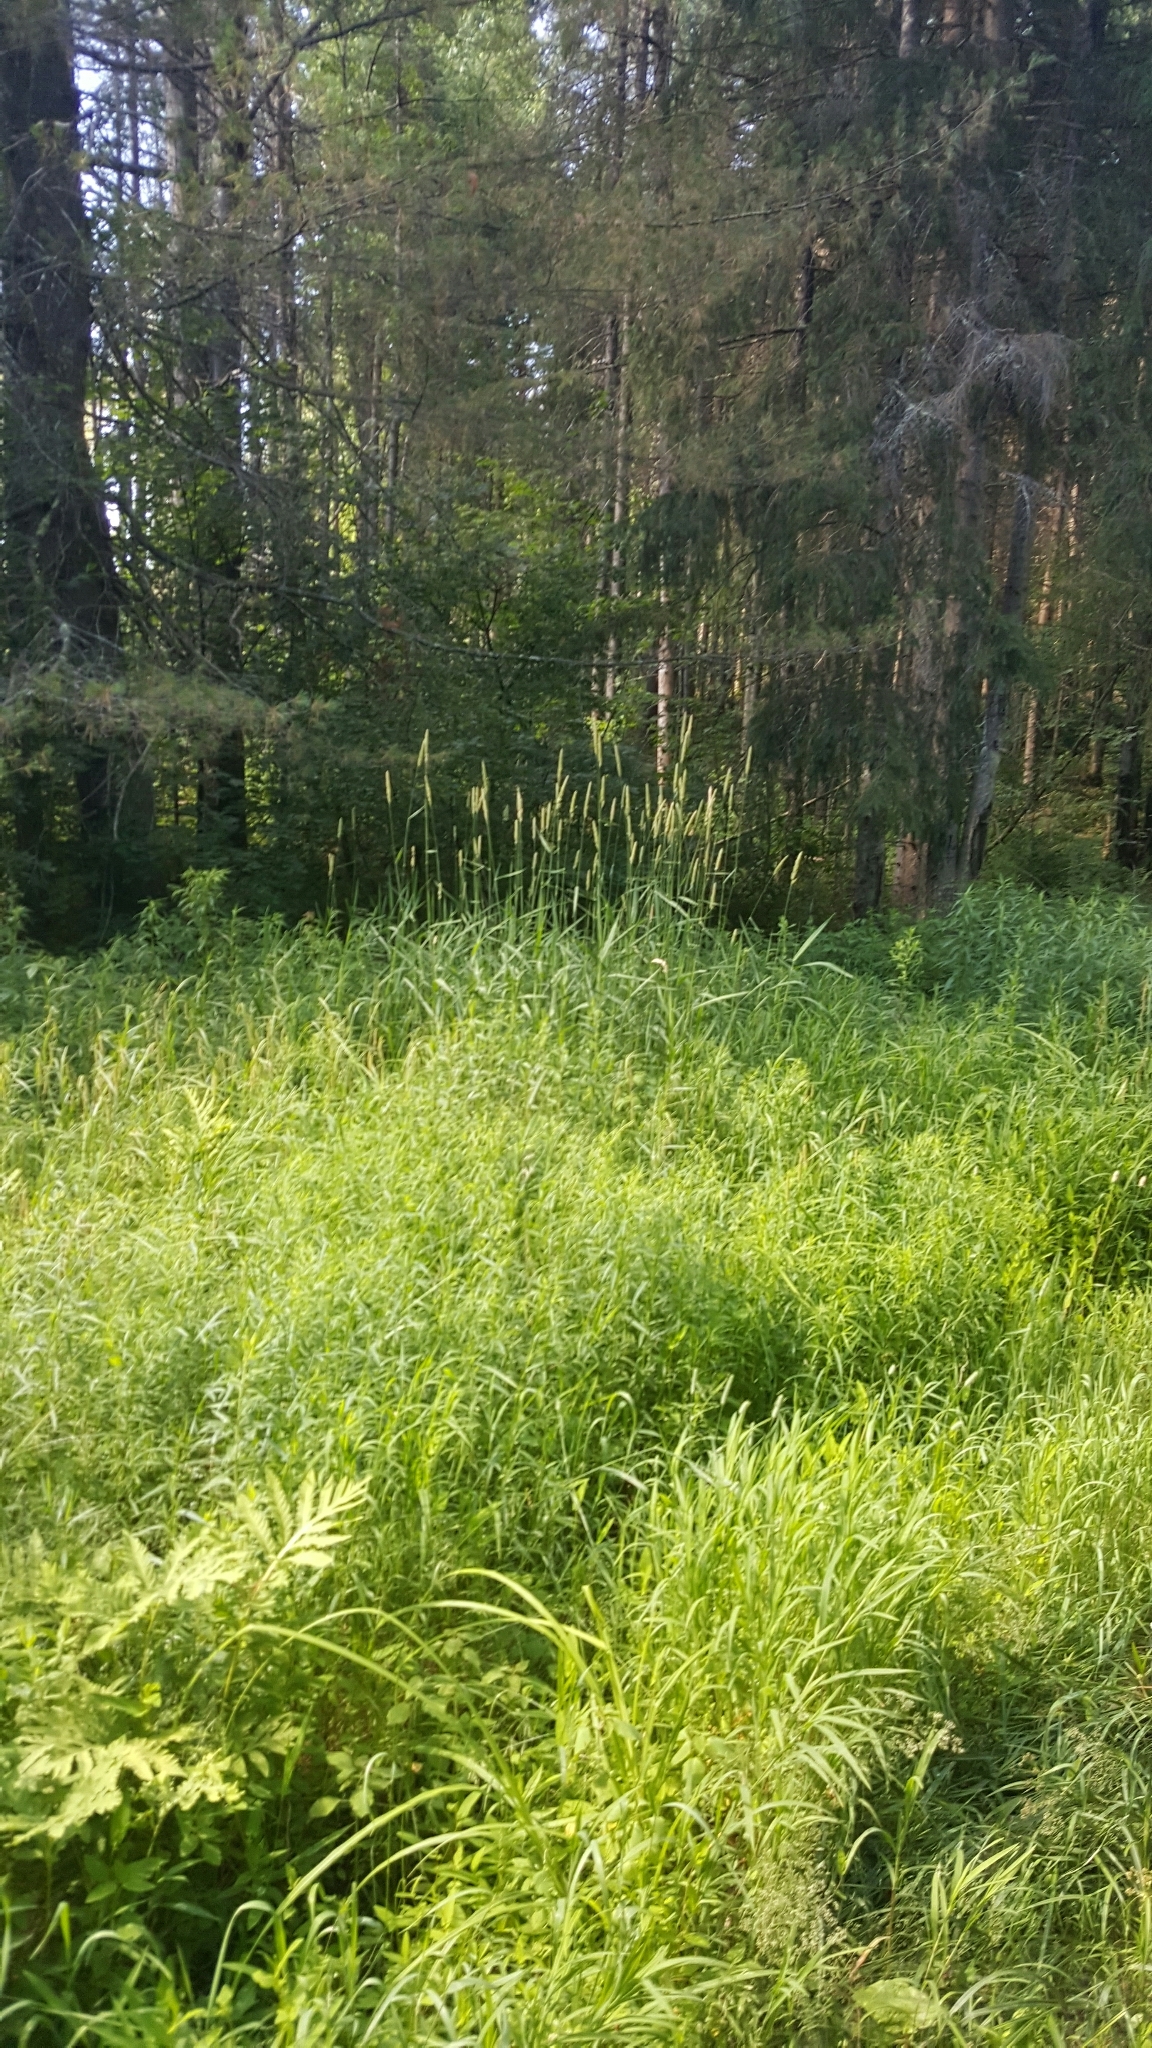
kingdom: Plantae
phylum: Tracheophyta
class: Liliopsida
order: Poales
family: Poaceae
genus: Phalaris
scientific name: Phalaris arundinacea
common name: Reed canary-grass
